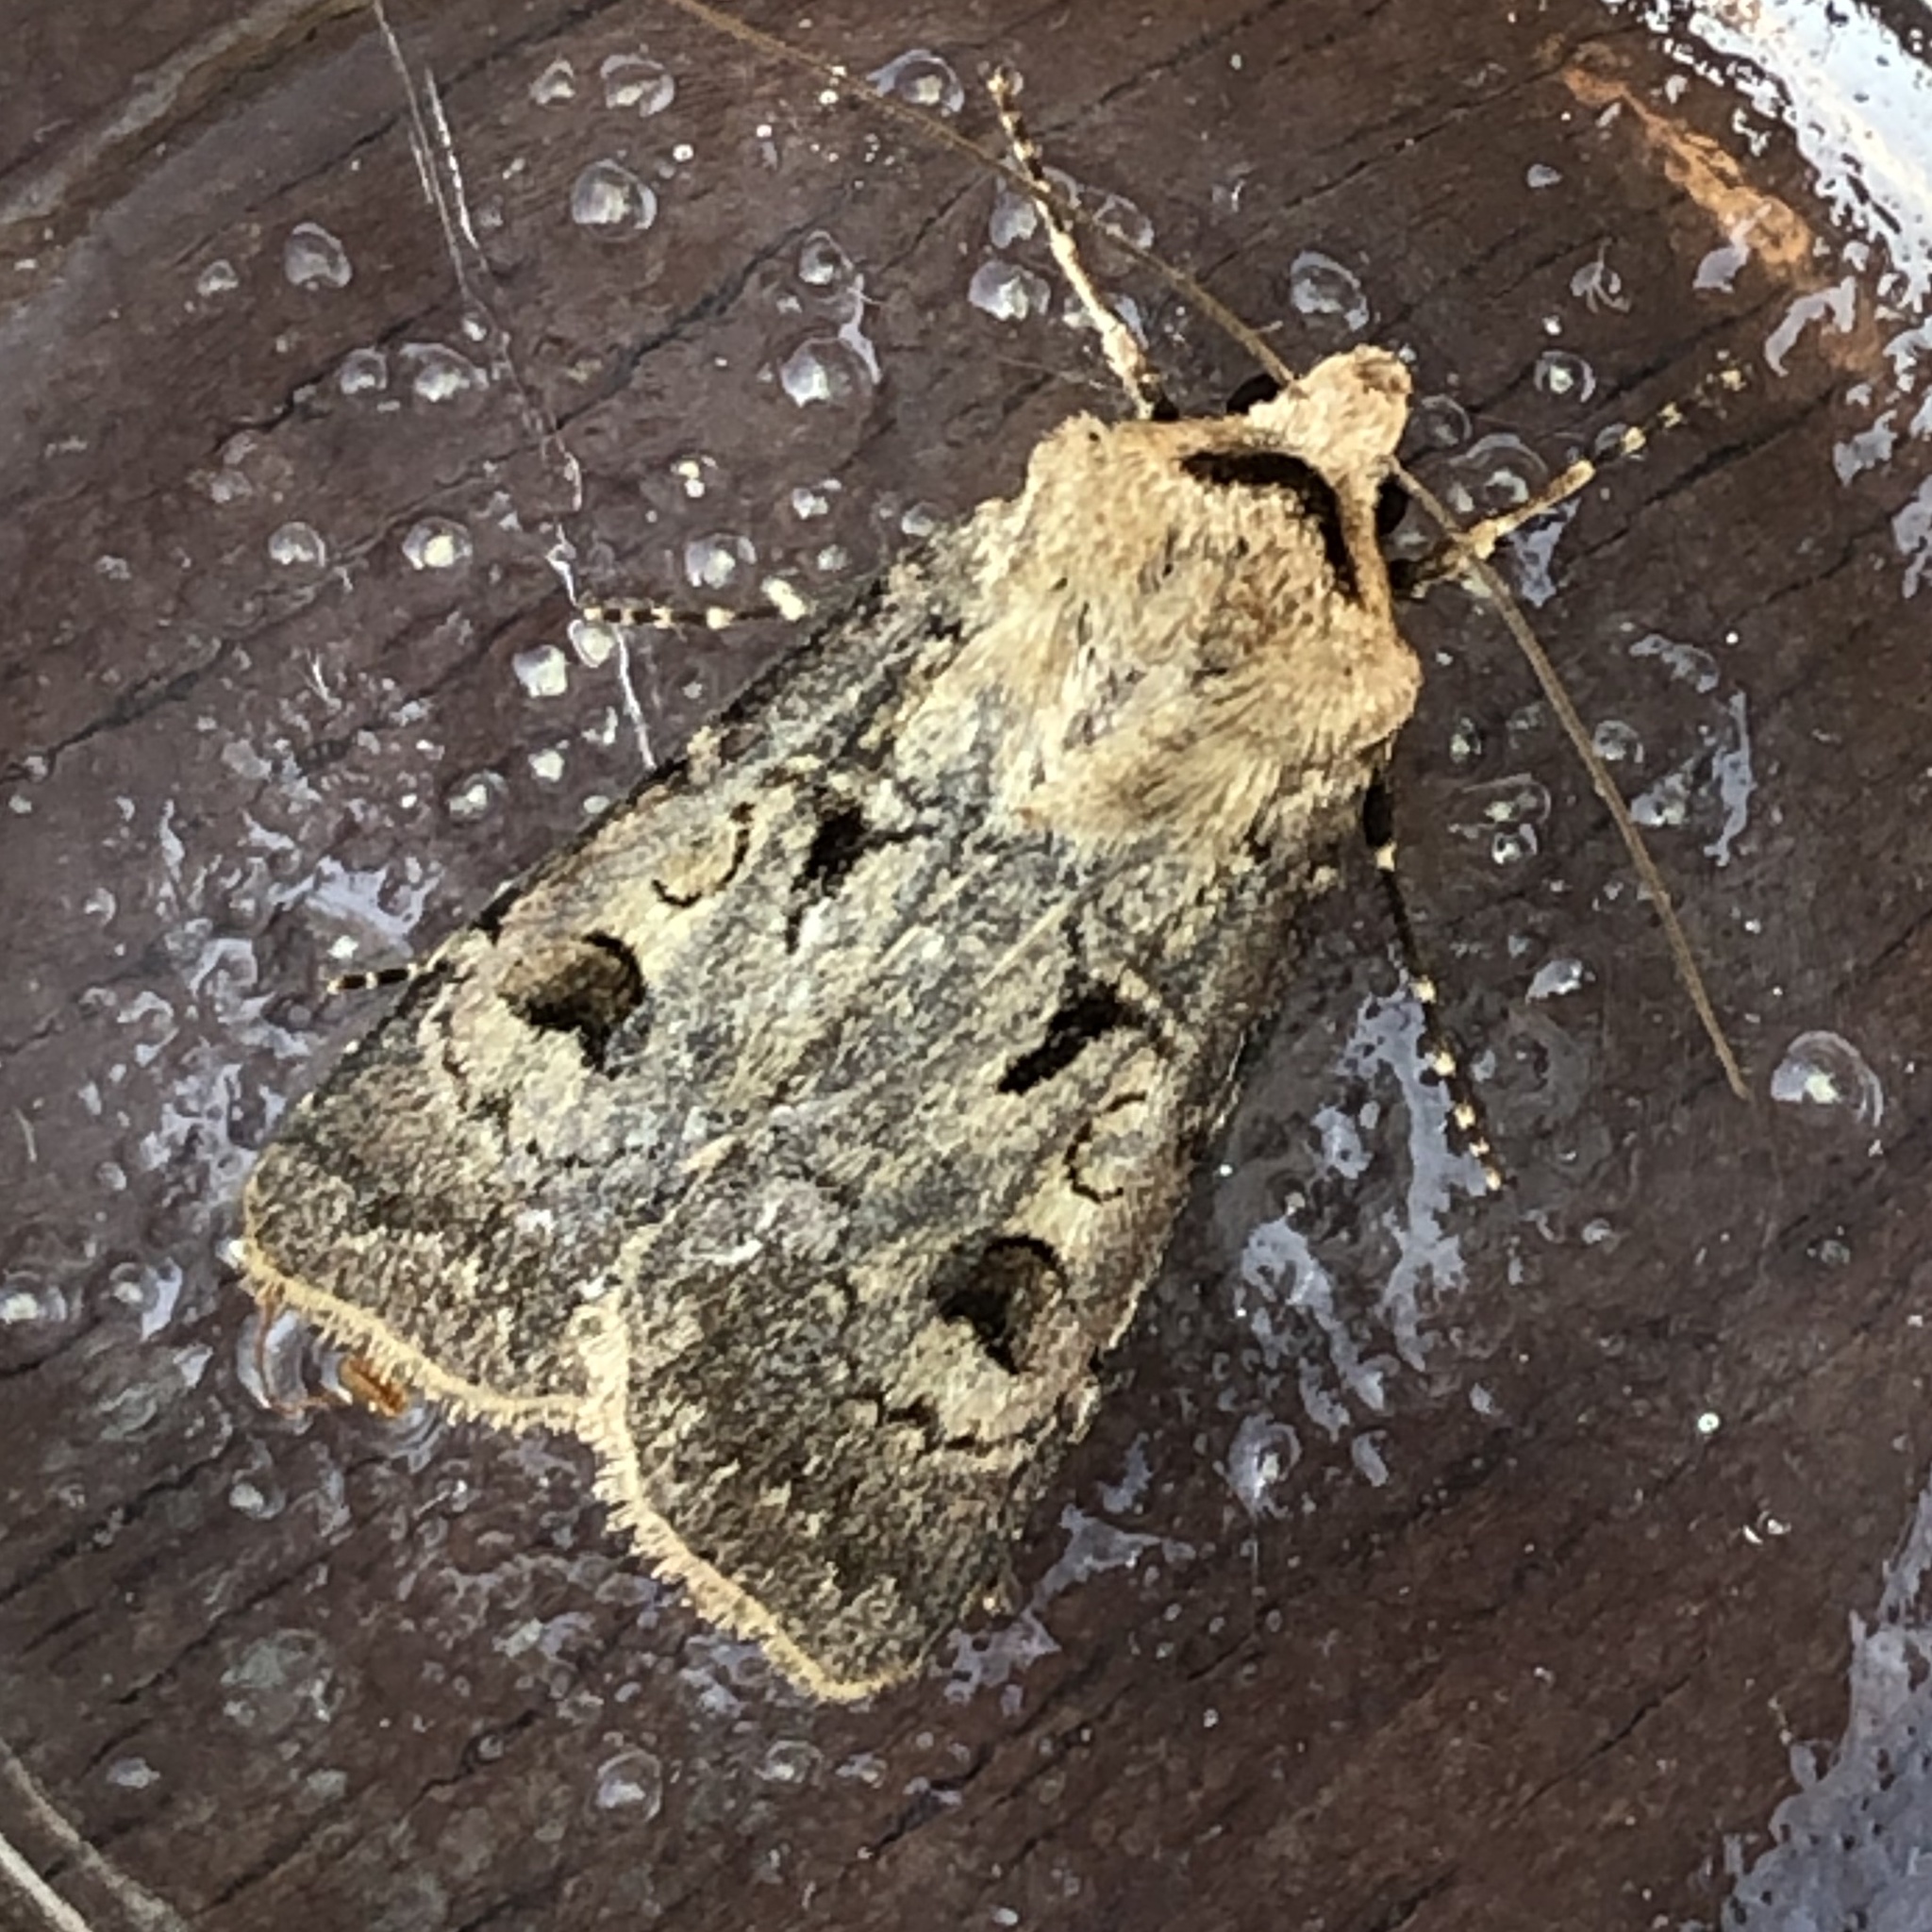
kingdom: Animalia
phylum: Arthropoda
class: Insecta
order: Lepidoptera
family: Noctuidae
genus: Agrotis
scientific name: Agrotis exclamationis
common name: Heart and dart
